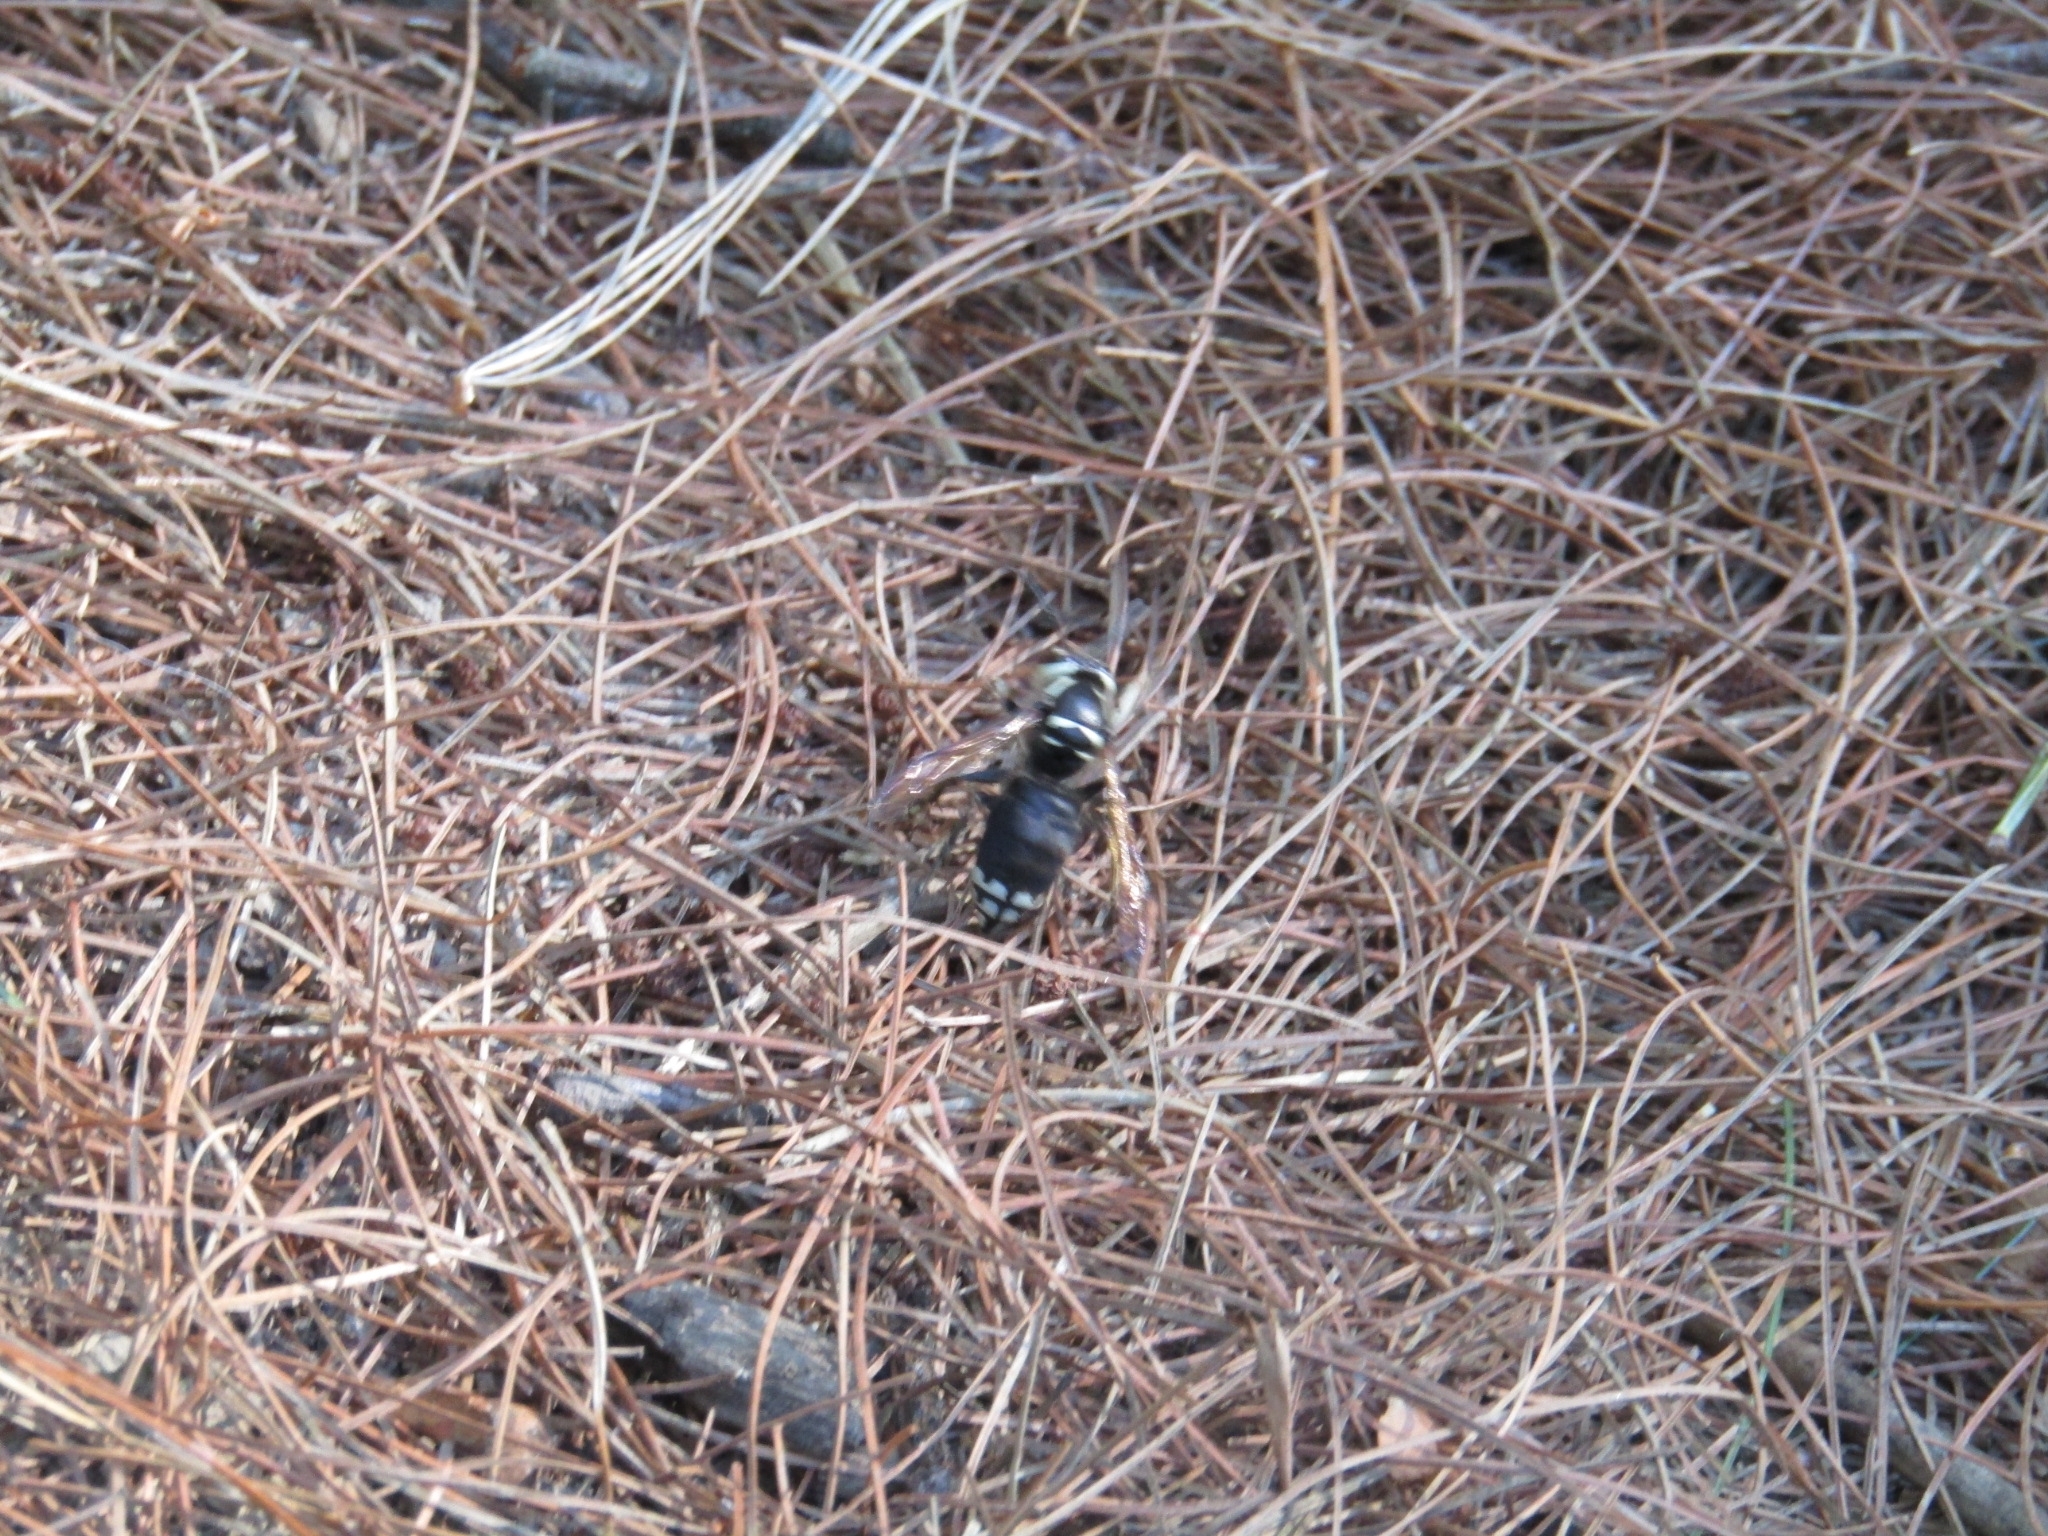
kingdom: Animalia
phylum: Arthropoda
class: Insecta
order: Hymenoptera
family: Vespidae
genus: Dolichovespula
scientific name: Dolichovespula maculata
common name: Bald-faced hornet
